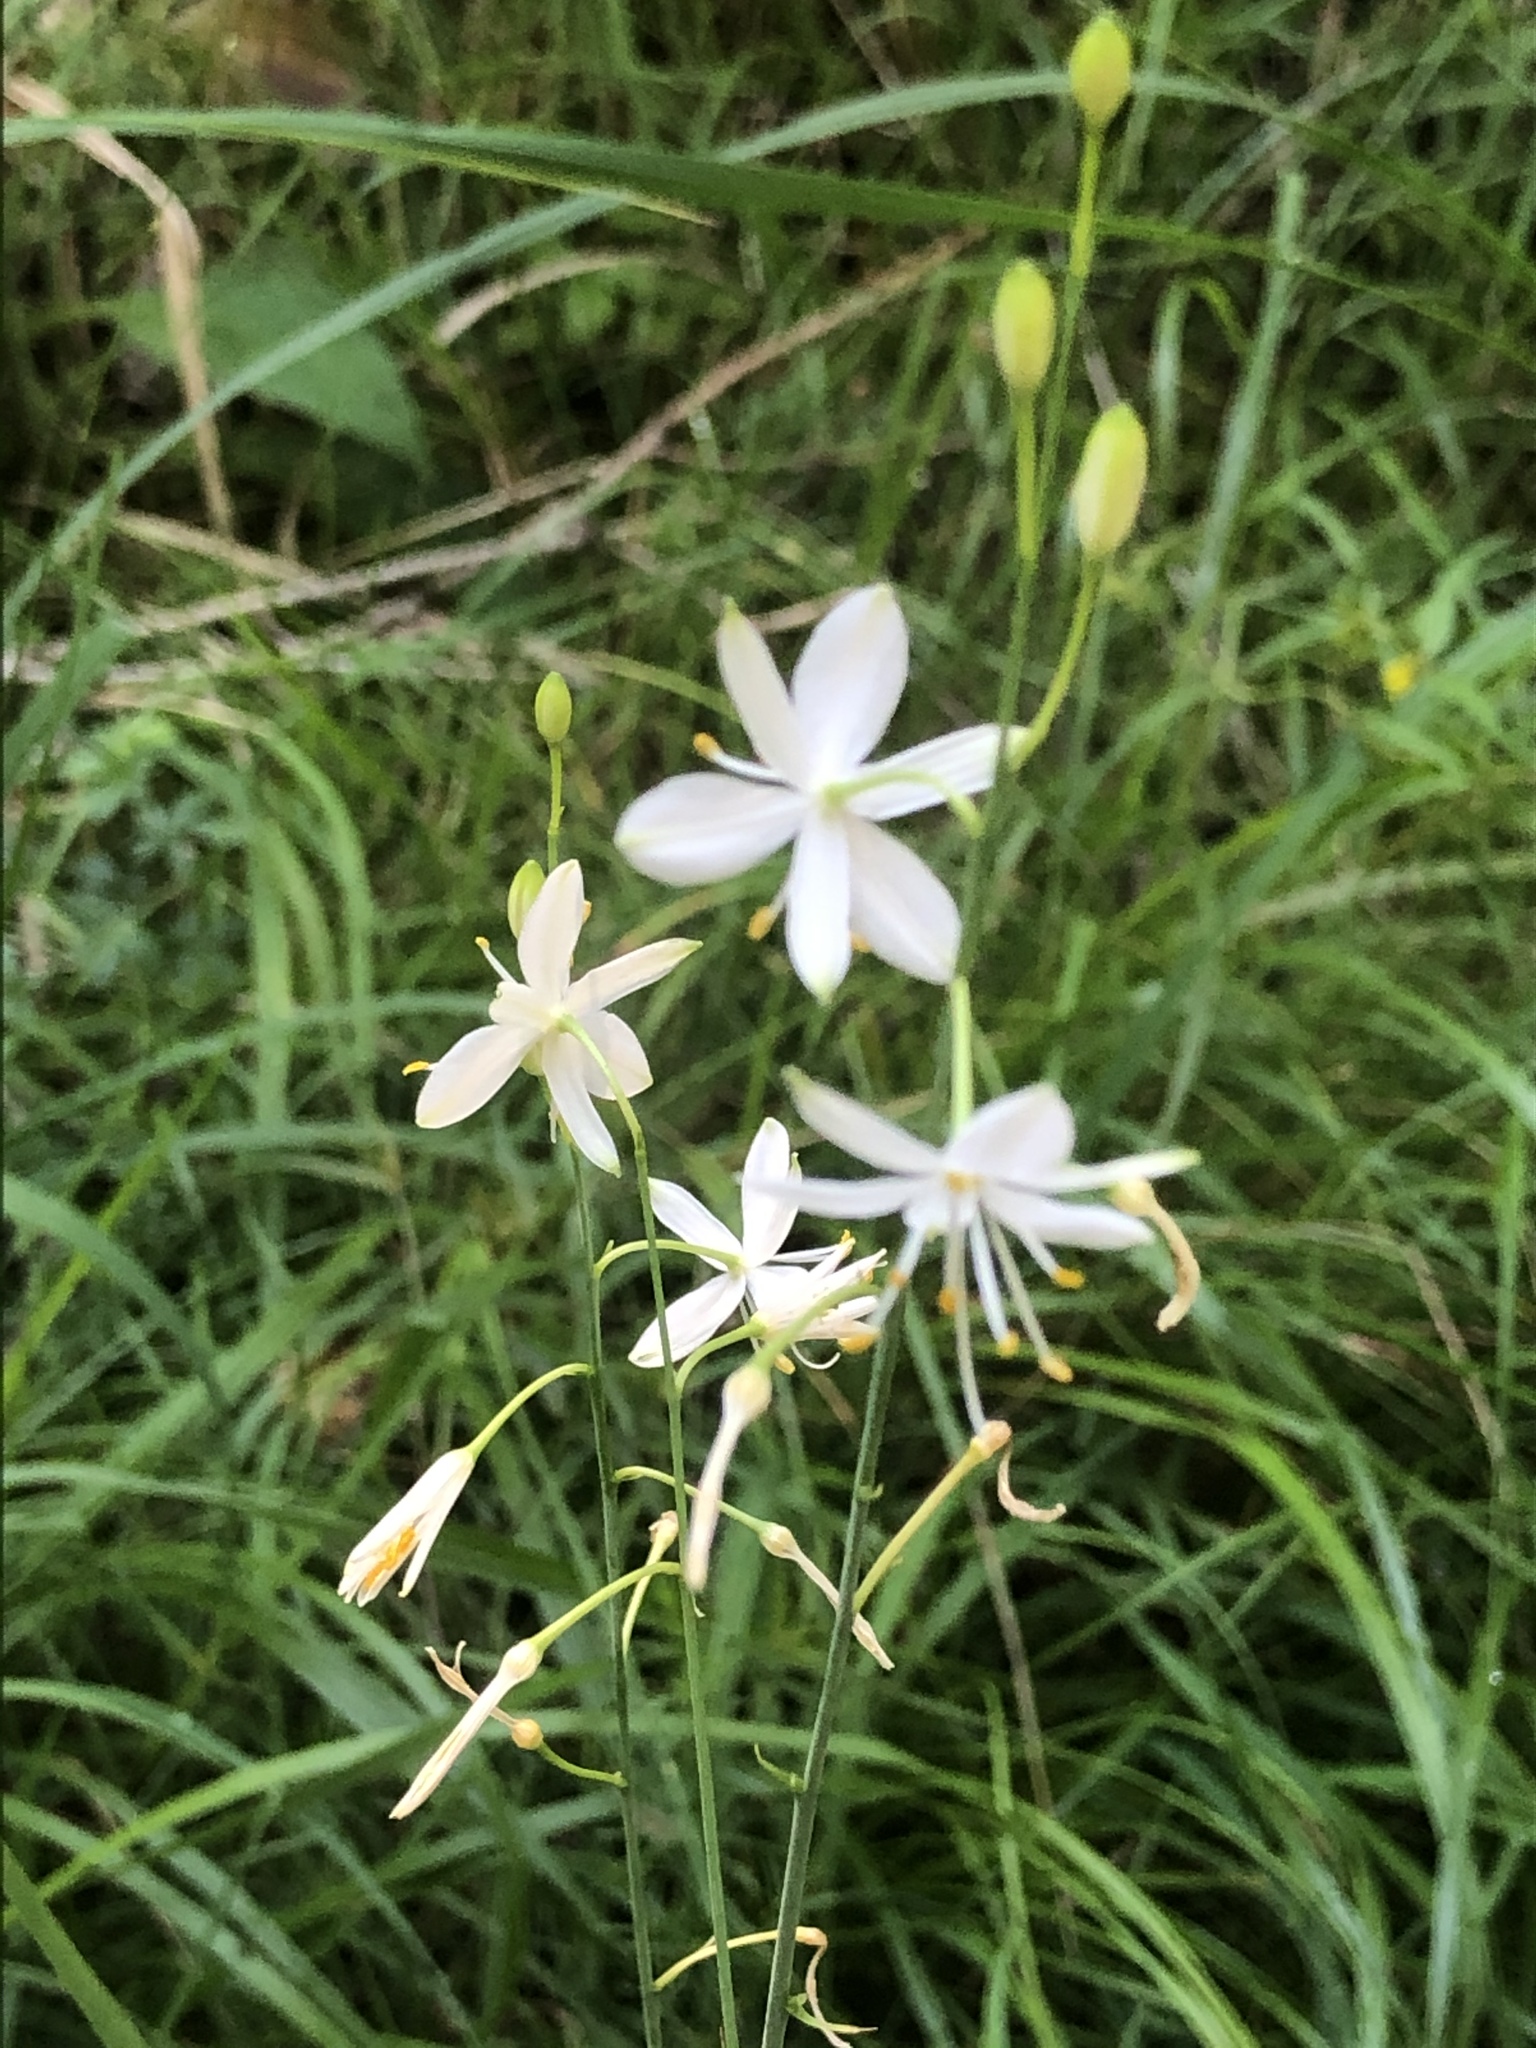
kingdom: Plantae
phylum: Tracheophyta
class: Liliopsida
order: Asparagales
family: Asparagaceae
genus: Anthericum
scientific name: Anthericum ramosum
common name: Branched st. bernard's-lily
